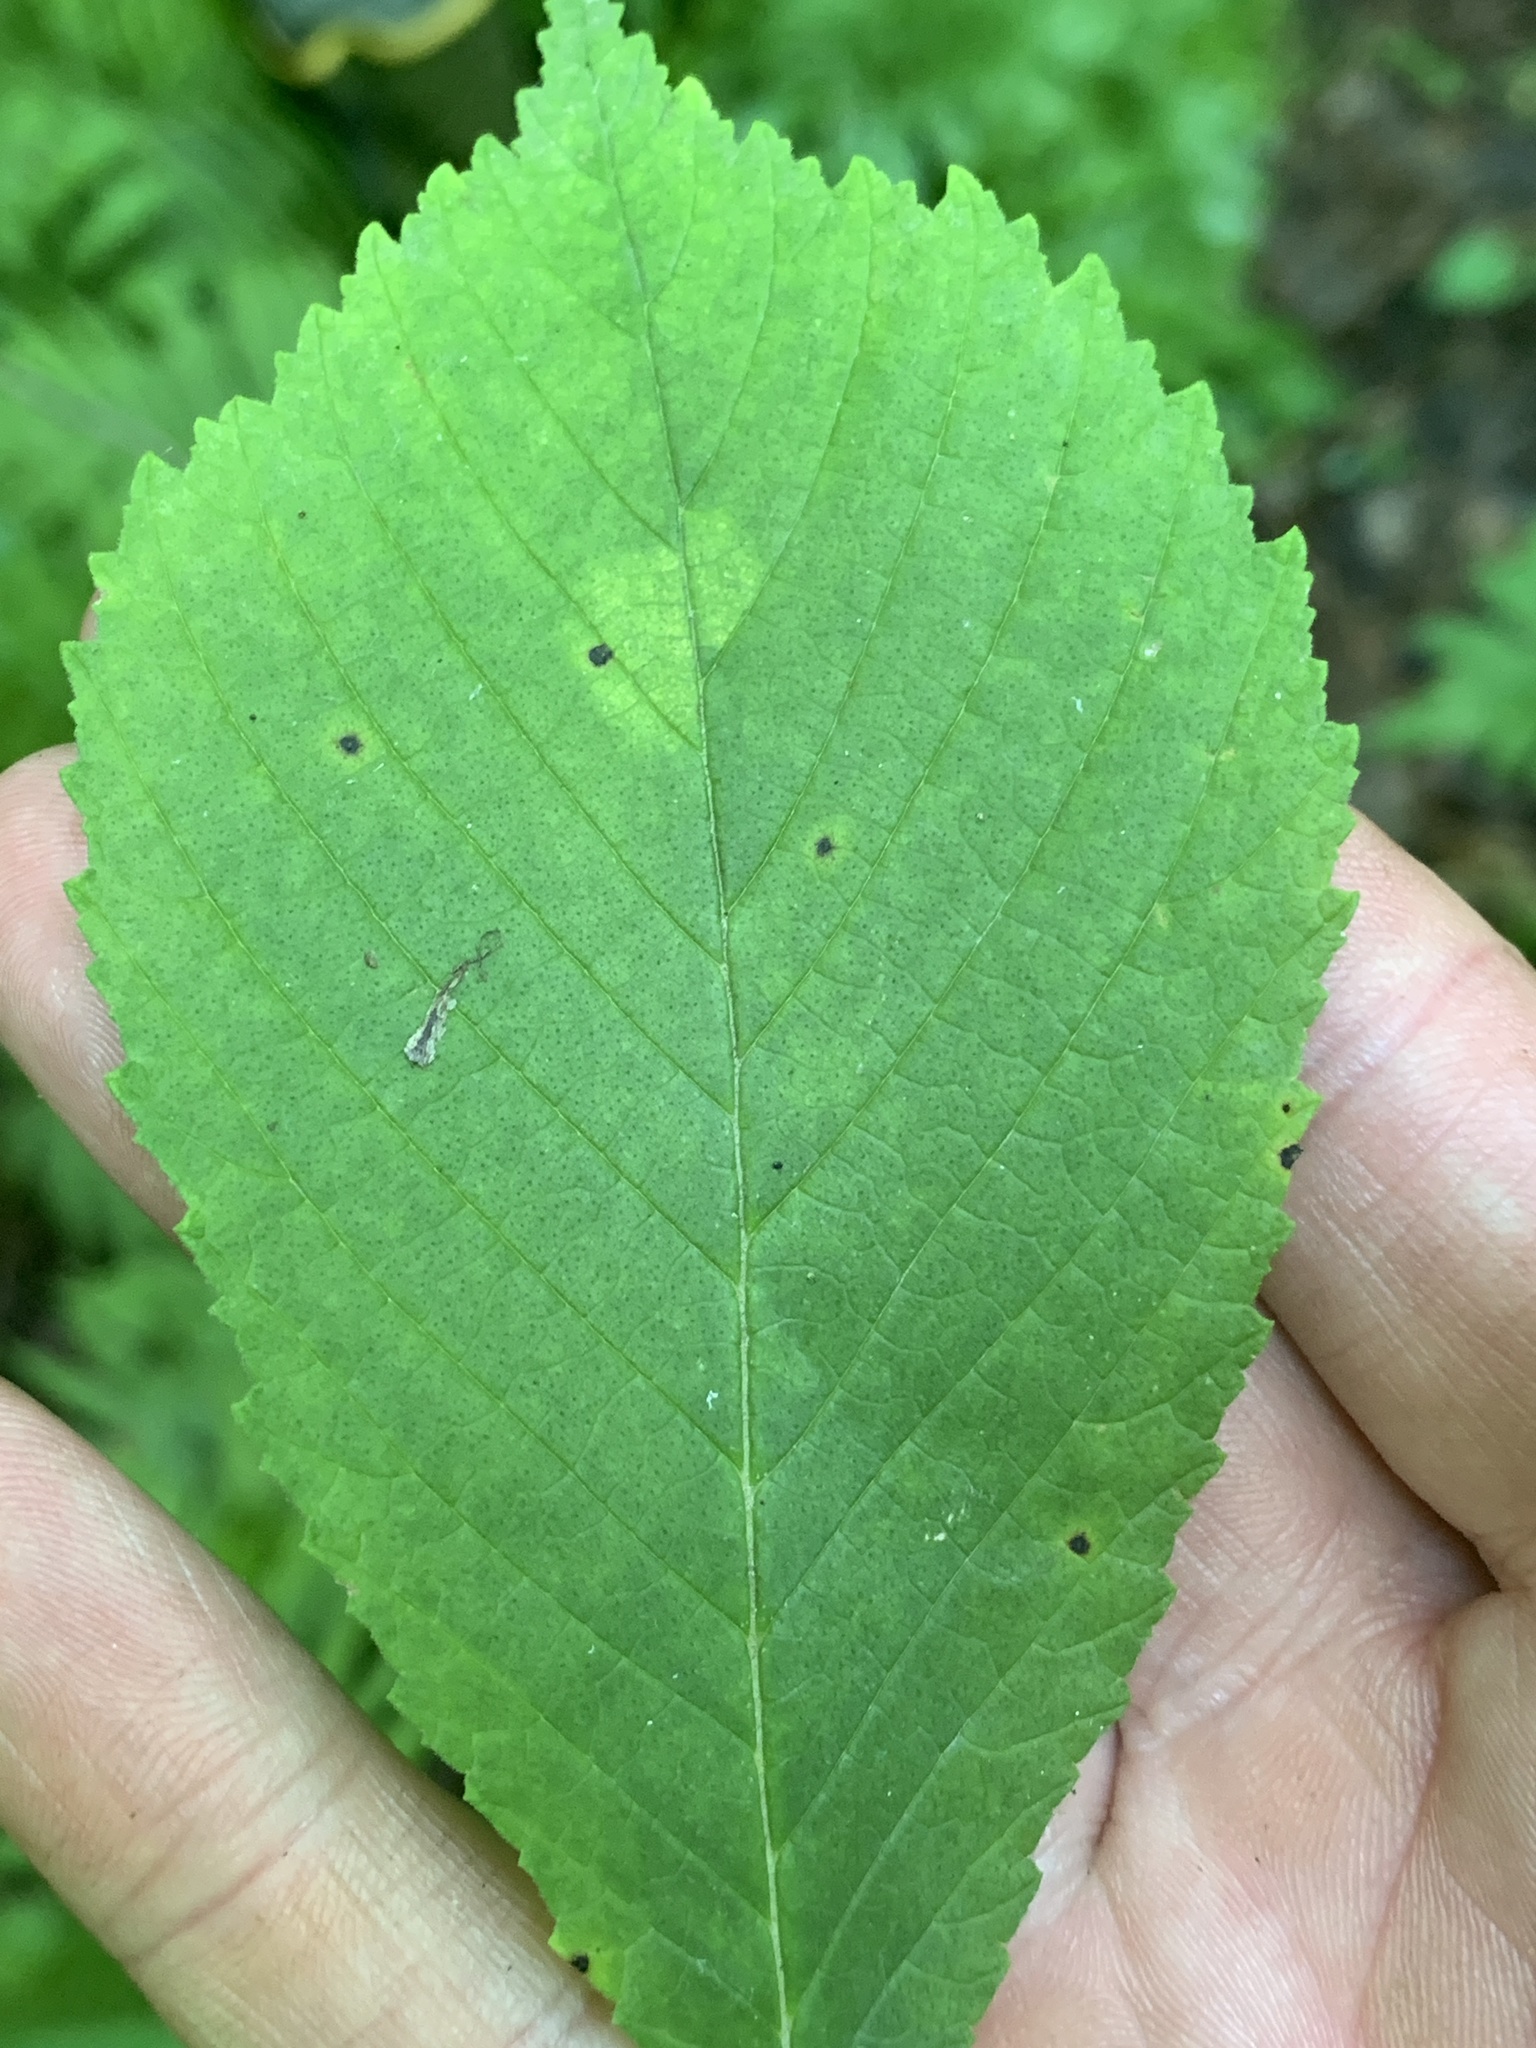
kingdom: Plantae
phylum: Tracheophyta
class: Magnoliopsida
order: Rosales
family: Ulmaceae
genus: Ulmus
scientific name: Ulmus rubra
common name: Slippery elm
